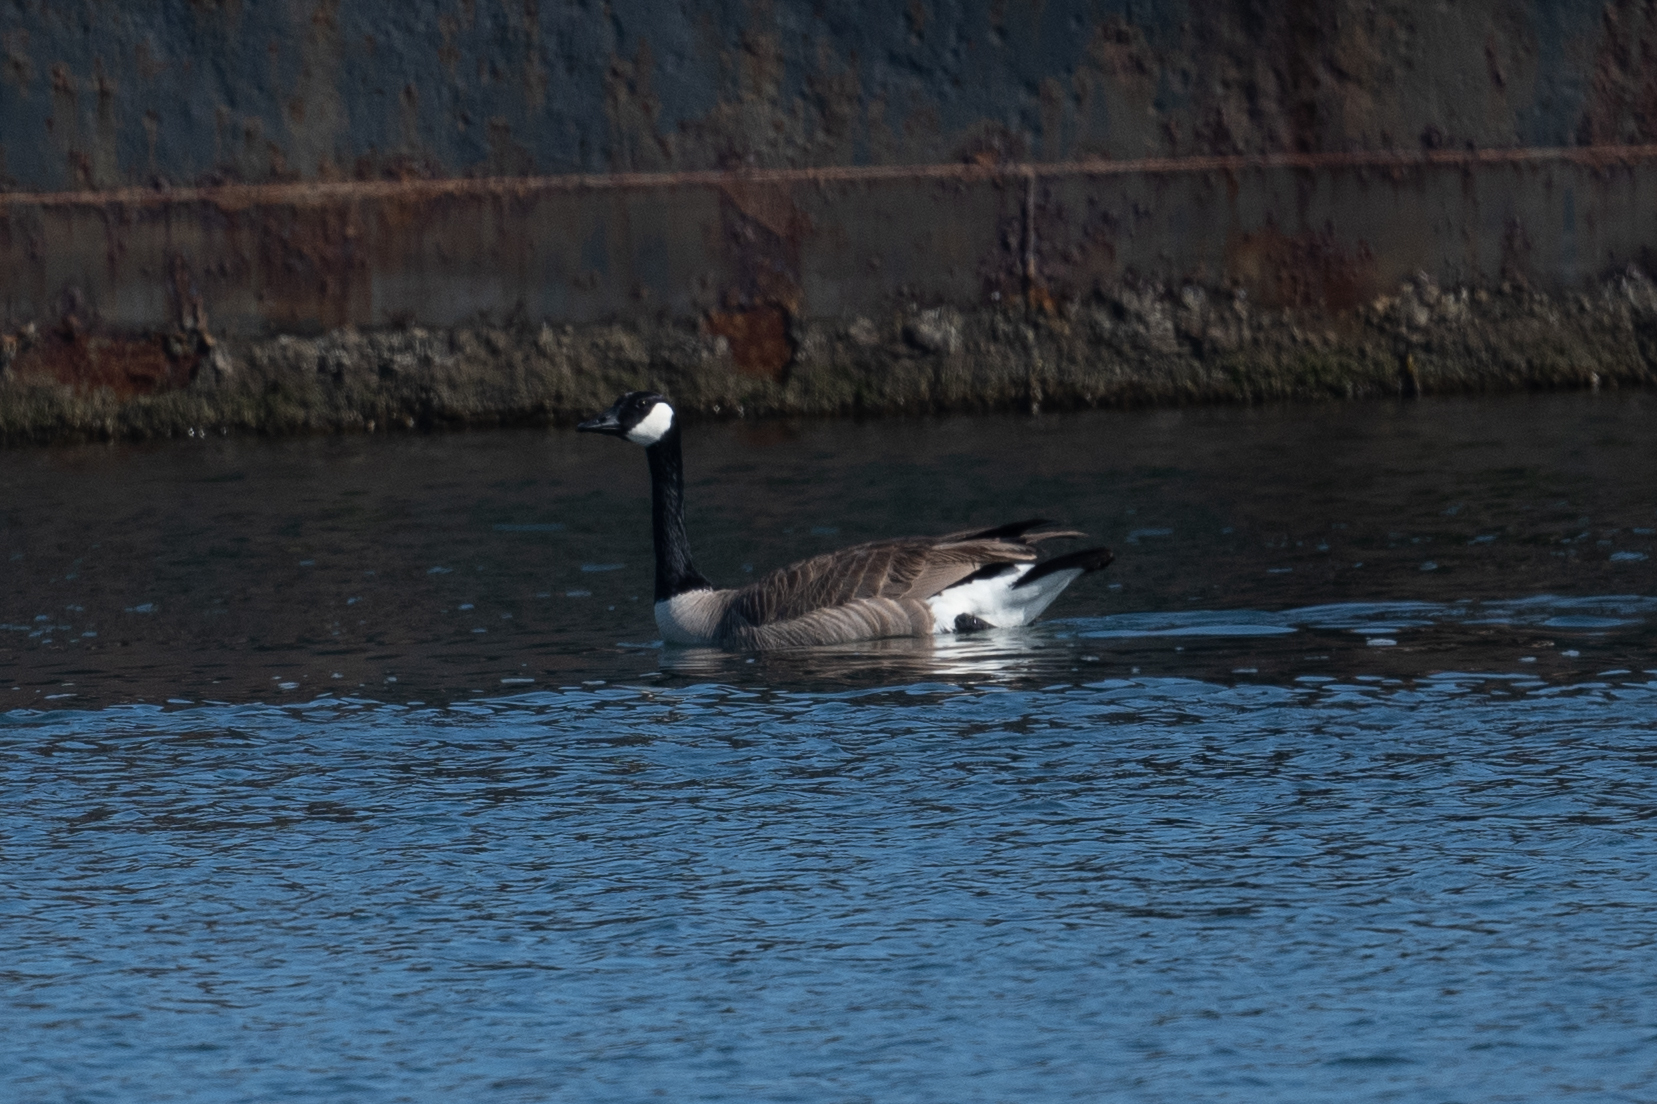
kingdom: Animalia
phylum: Chordata
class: Aves
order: Anseriformes
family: Anatidae
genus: Branta
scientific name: Branta canadensis
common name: Canada goose
